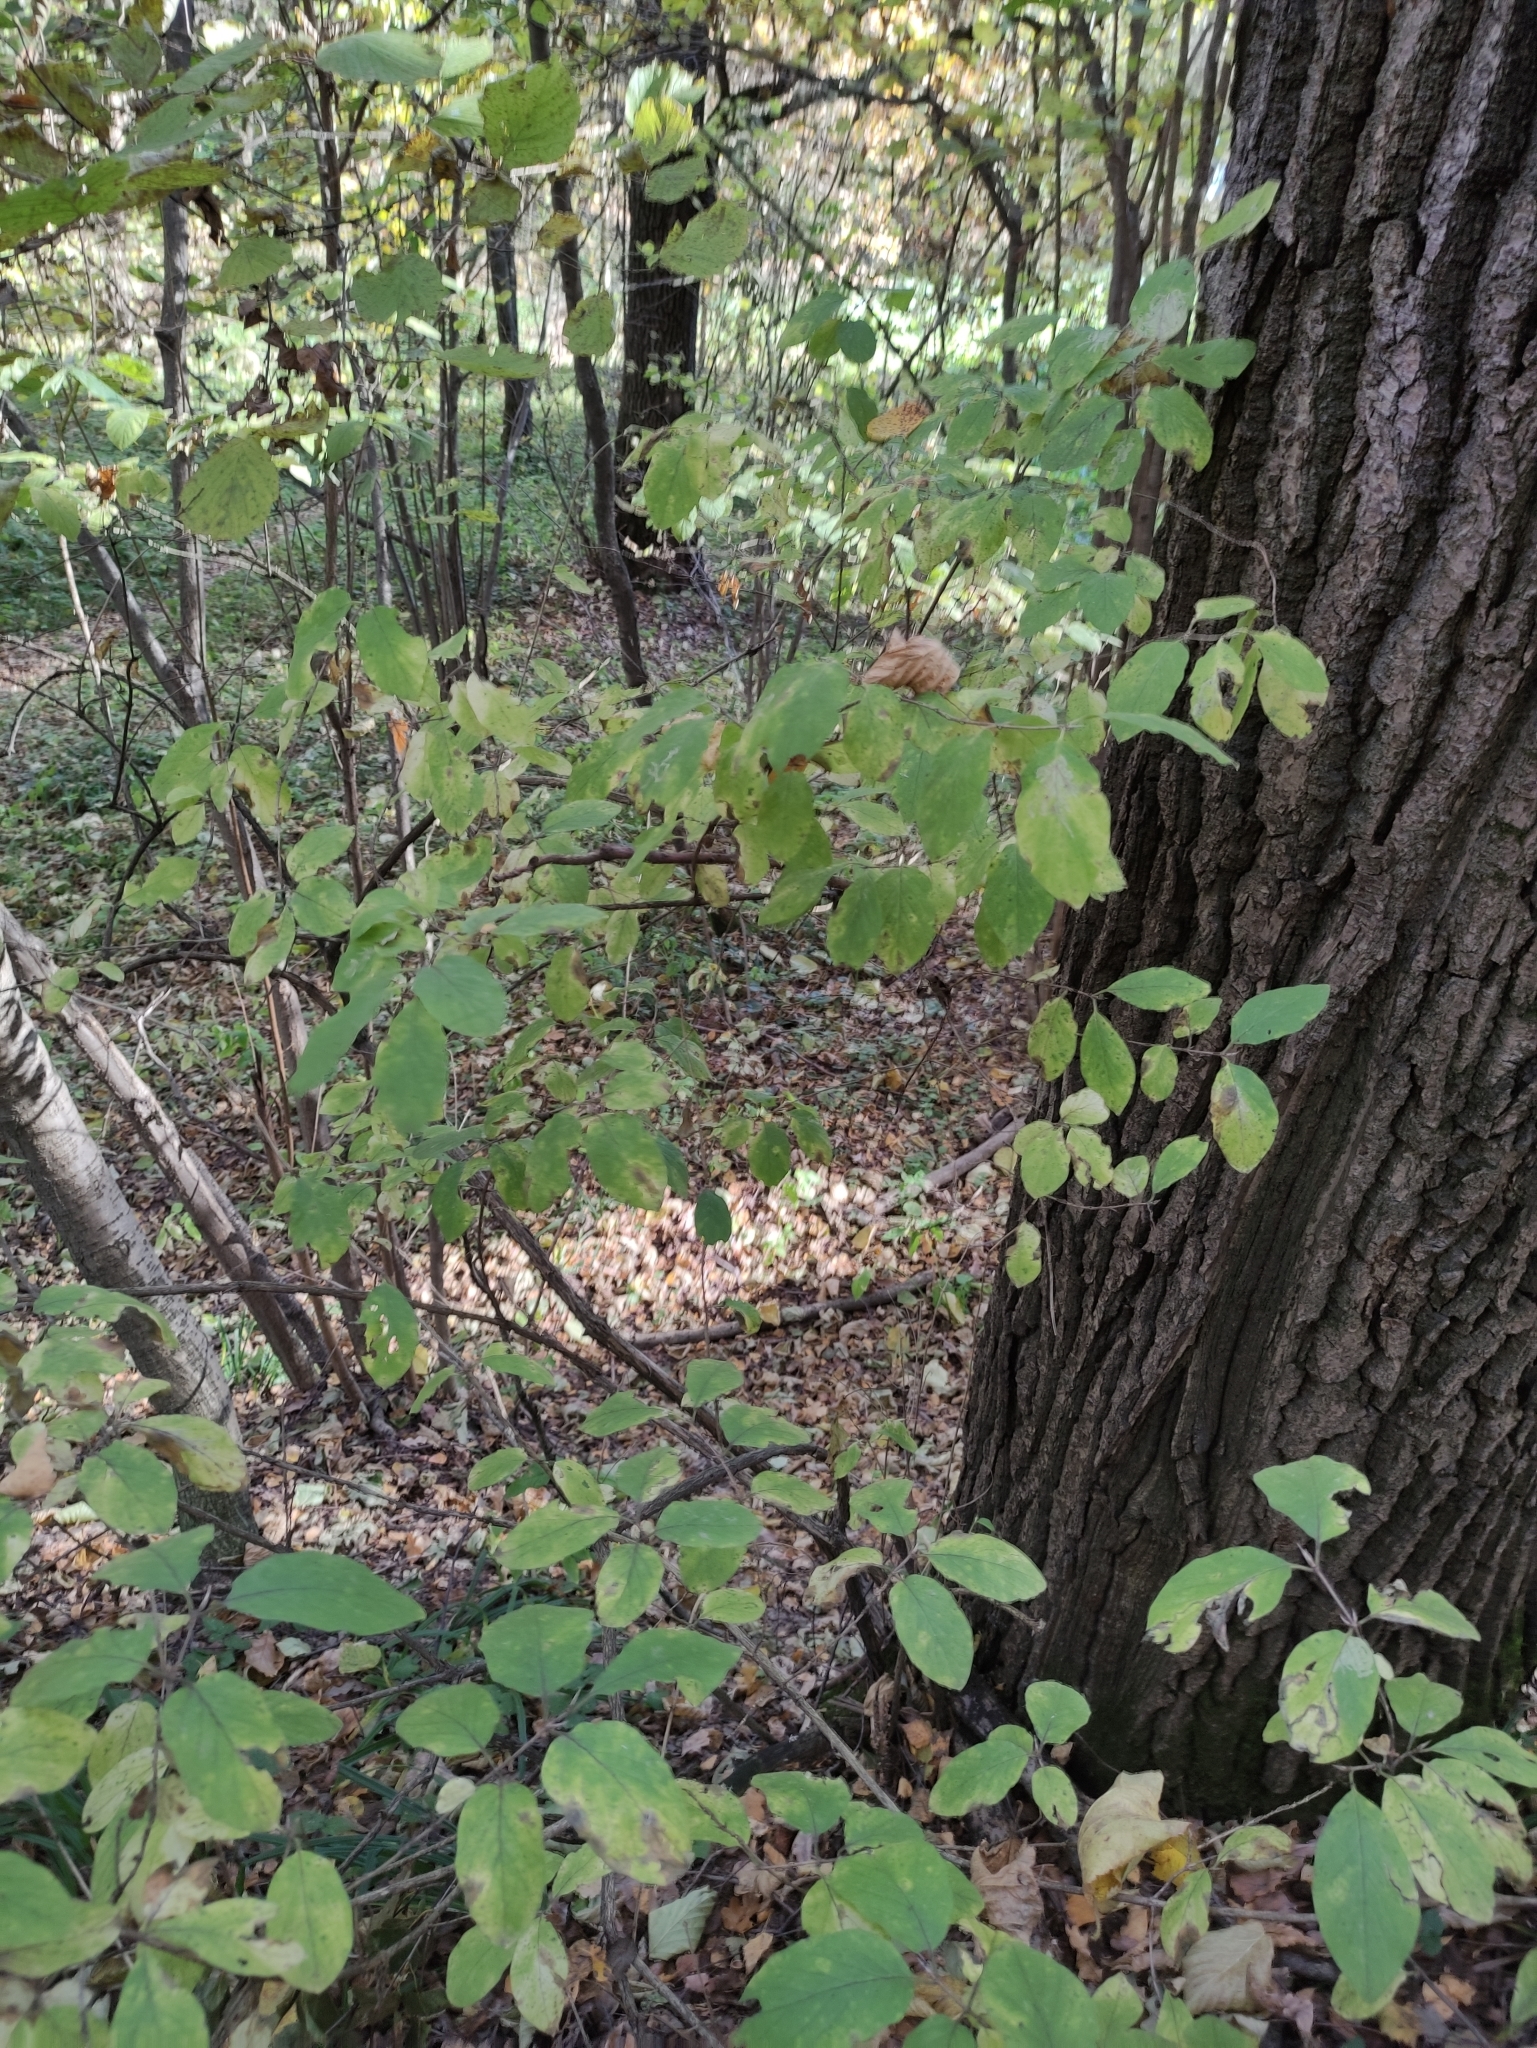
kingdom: Plantae
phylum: Tracheophyta
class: Magnoliopsida
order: Dipsacales
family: Caprifoliaceae
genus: Lonicera
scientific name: Lonicera xylosteum
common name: Fly honeysuckle
